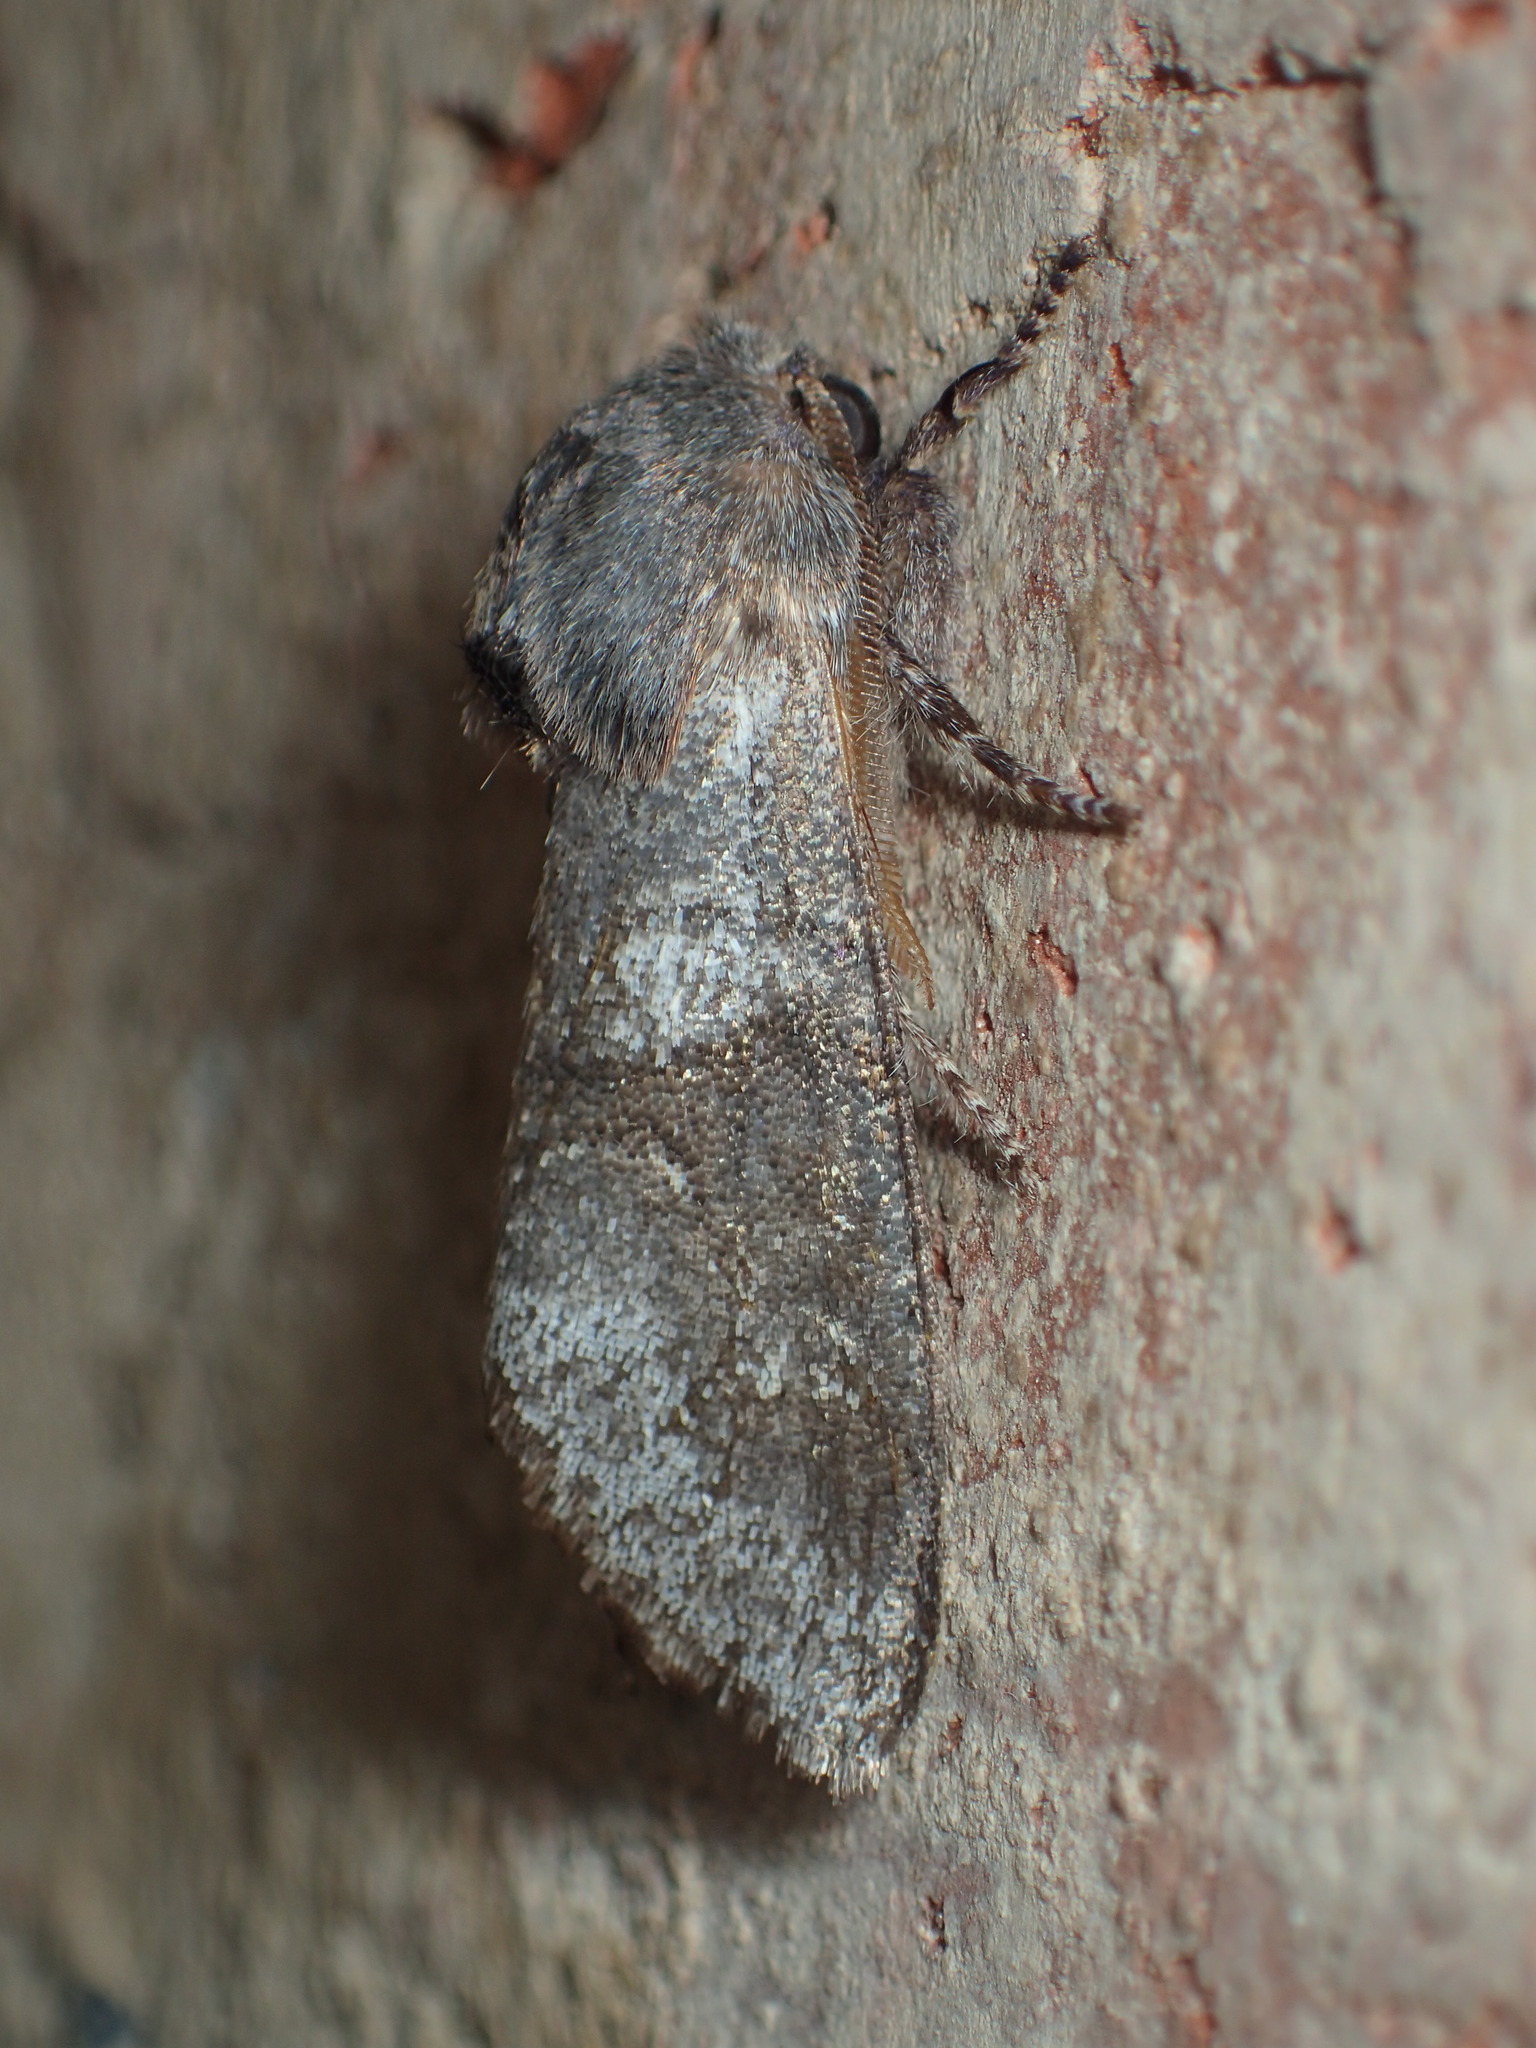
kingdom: Animalia
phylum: Arthropoda
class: Insecta
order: Lepidoptera
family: Noctuidae
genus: Psaphida
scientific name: Psaphida grandis
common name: Gray sallow
